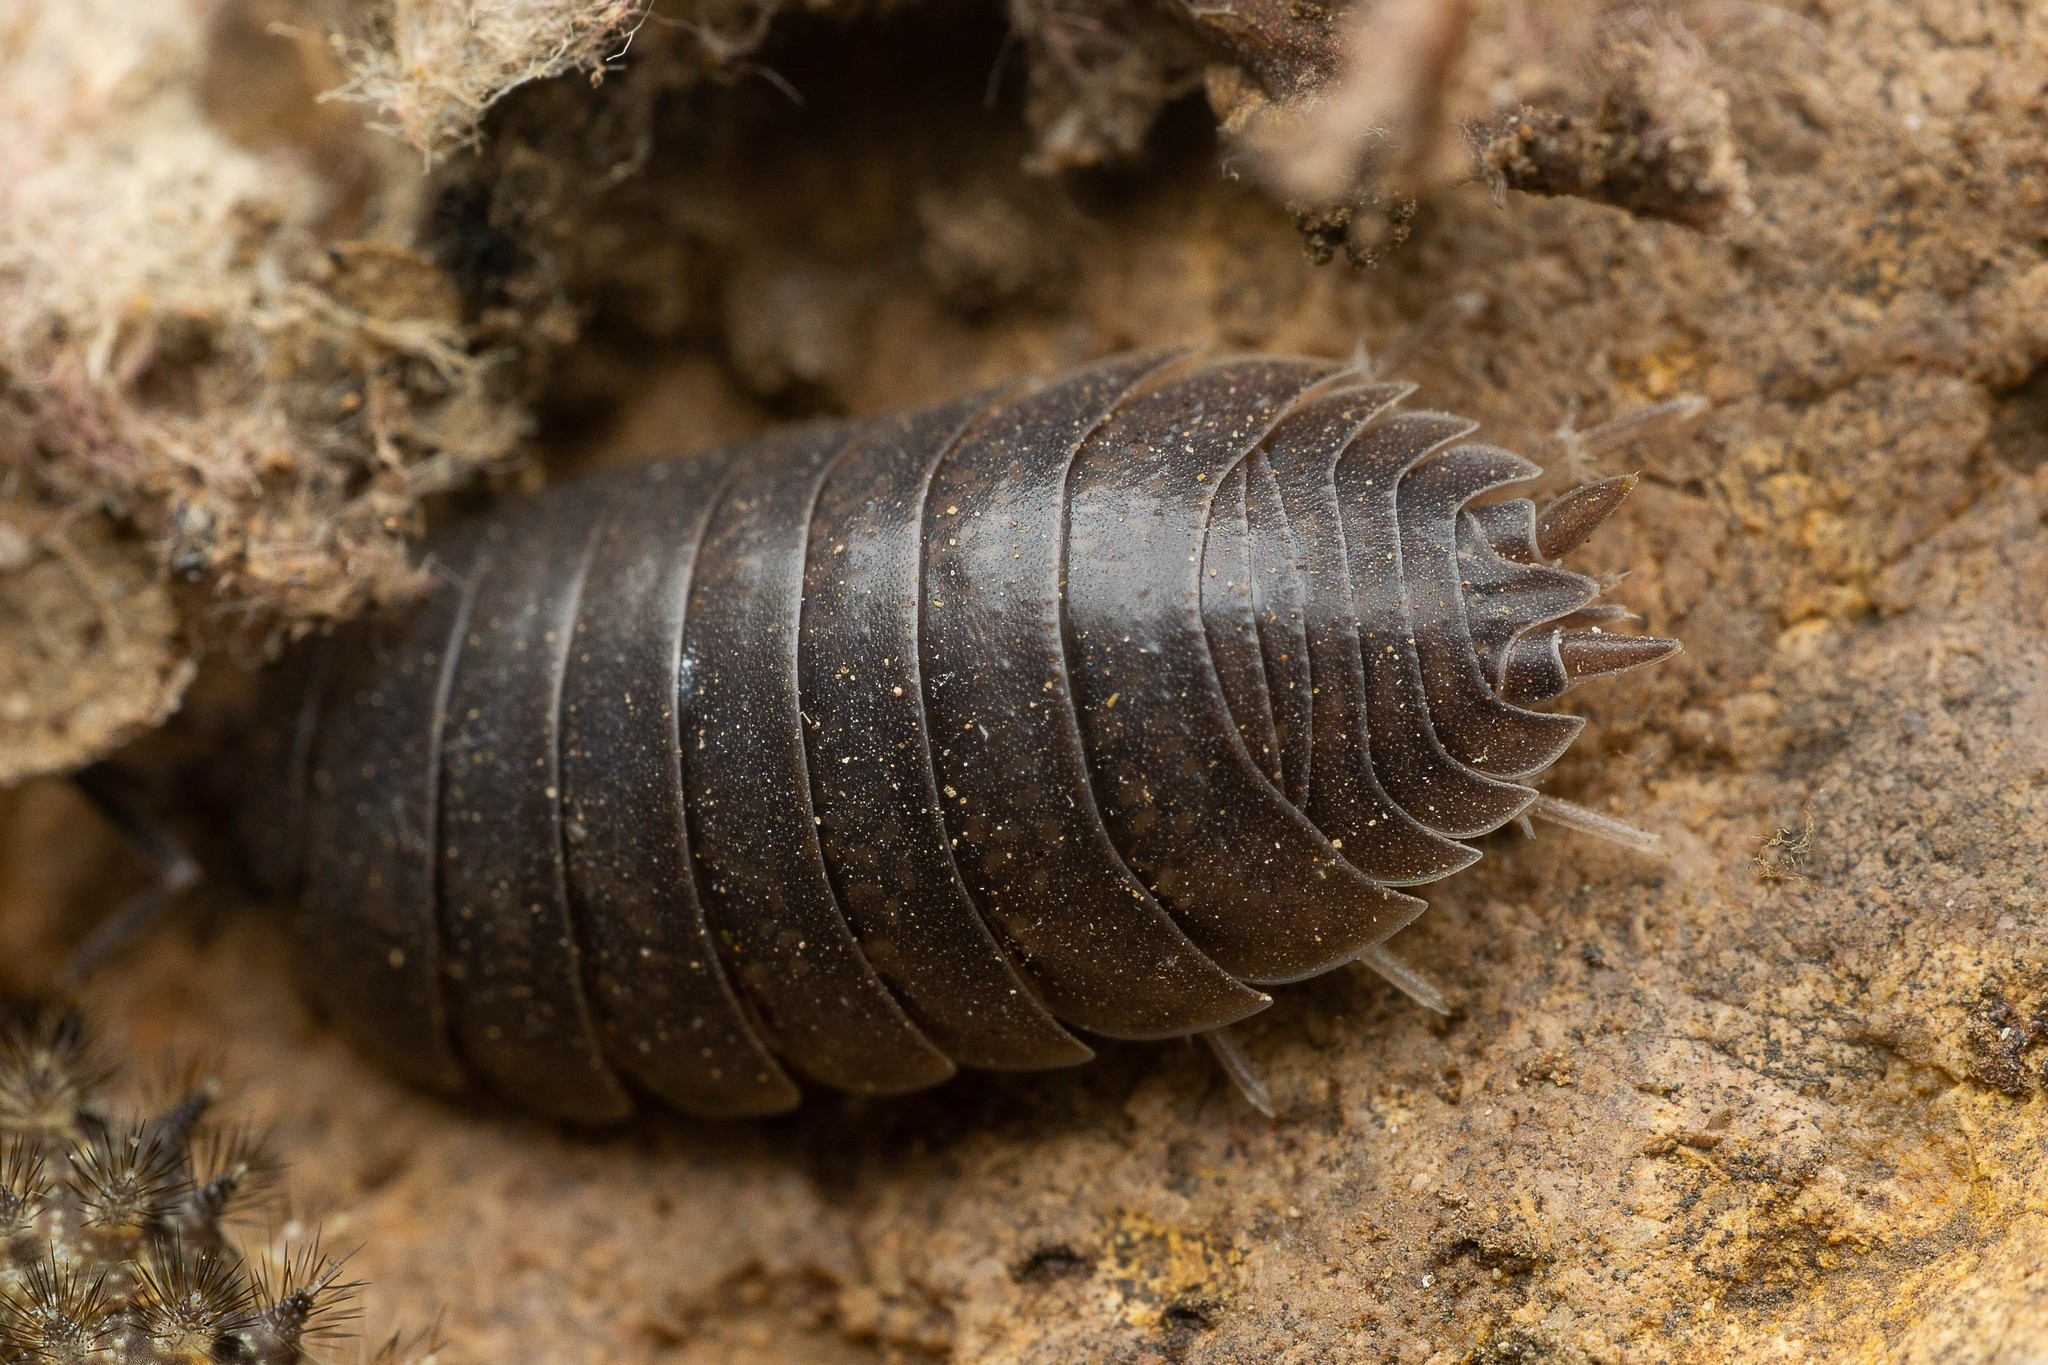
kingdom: Animalia
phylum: Arthropoda
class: Malacostraca
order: Isopoda
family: Porcellionidae
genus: Porcellio
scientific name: Porcellio laevis
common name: Swift woodlouse
